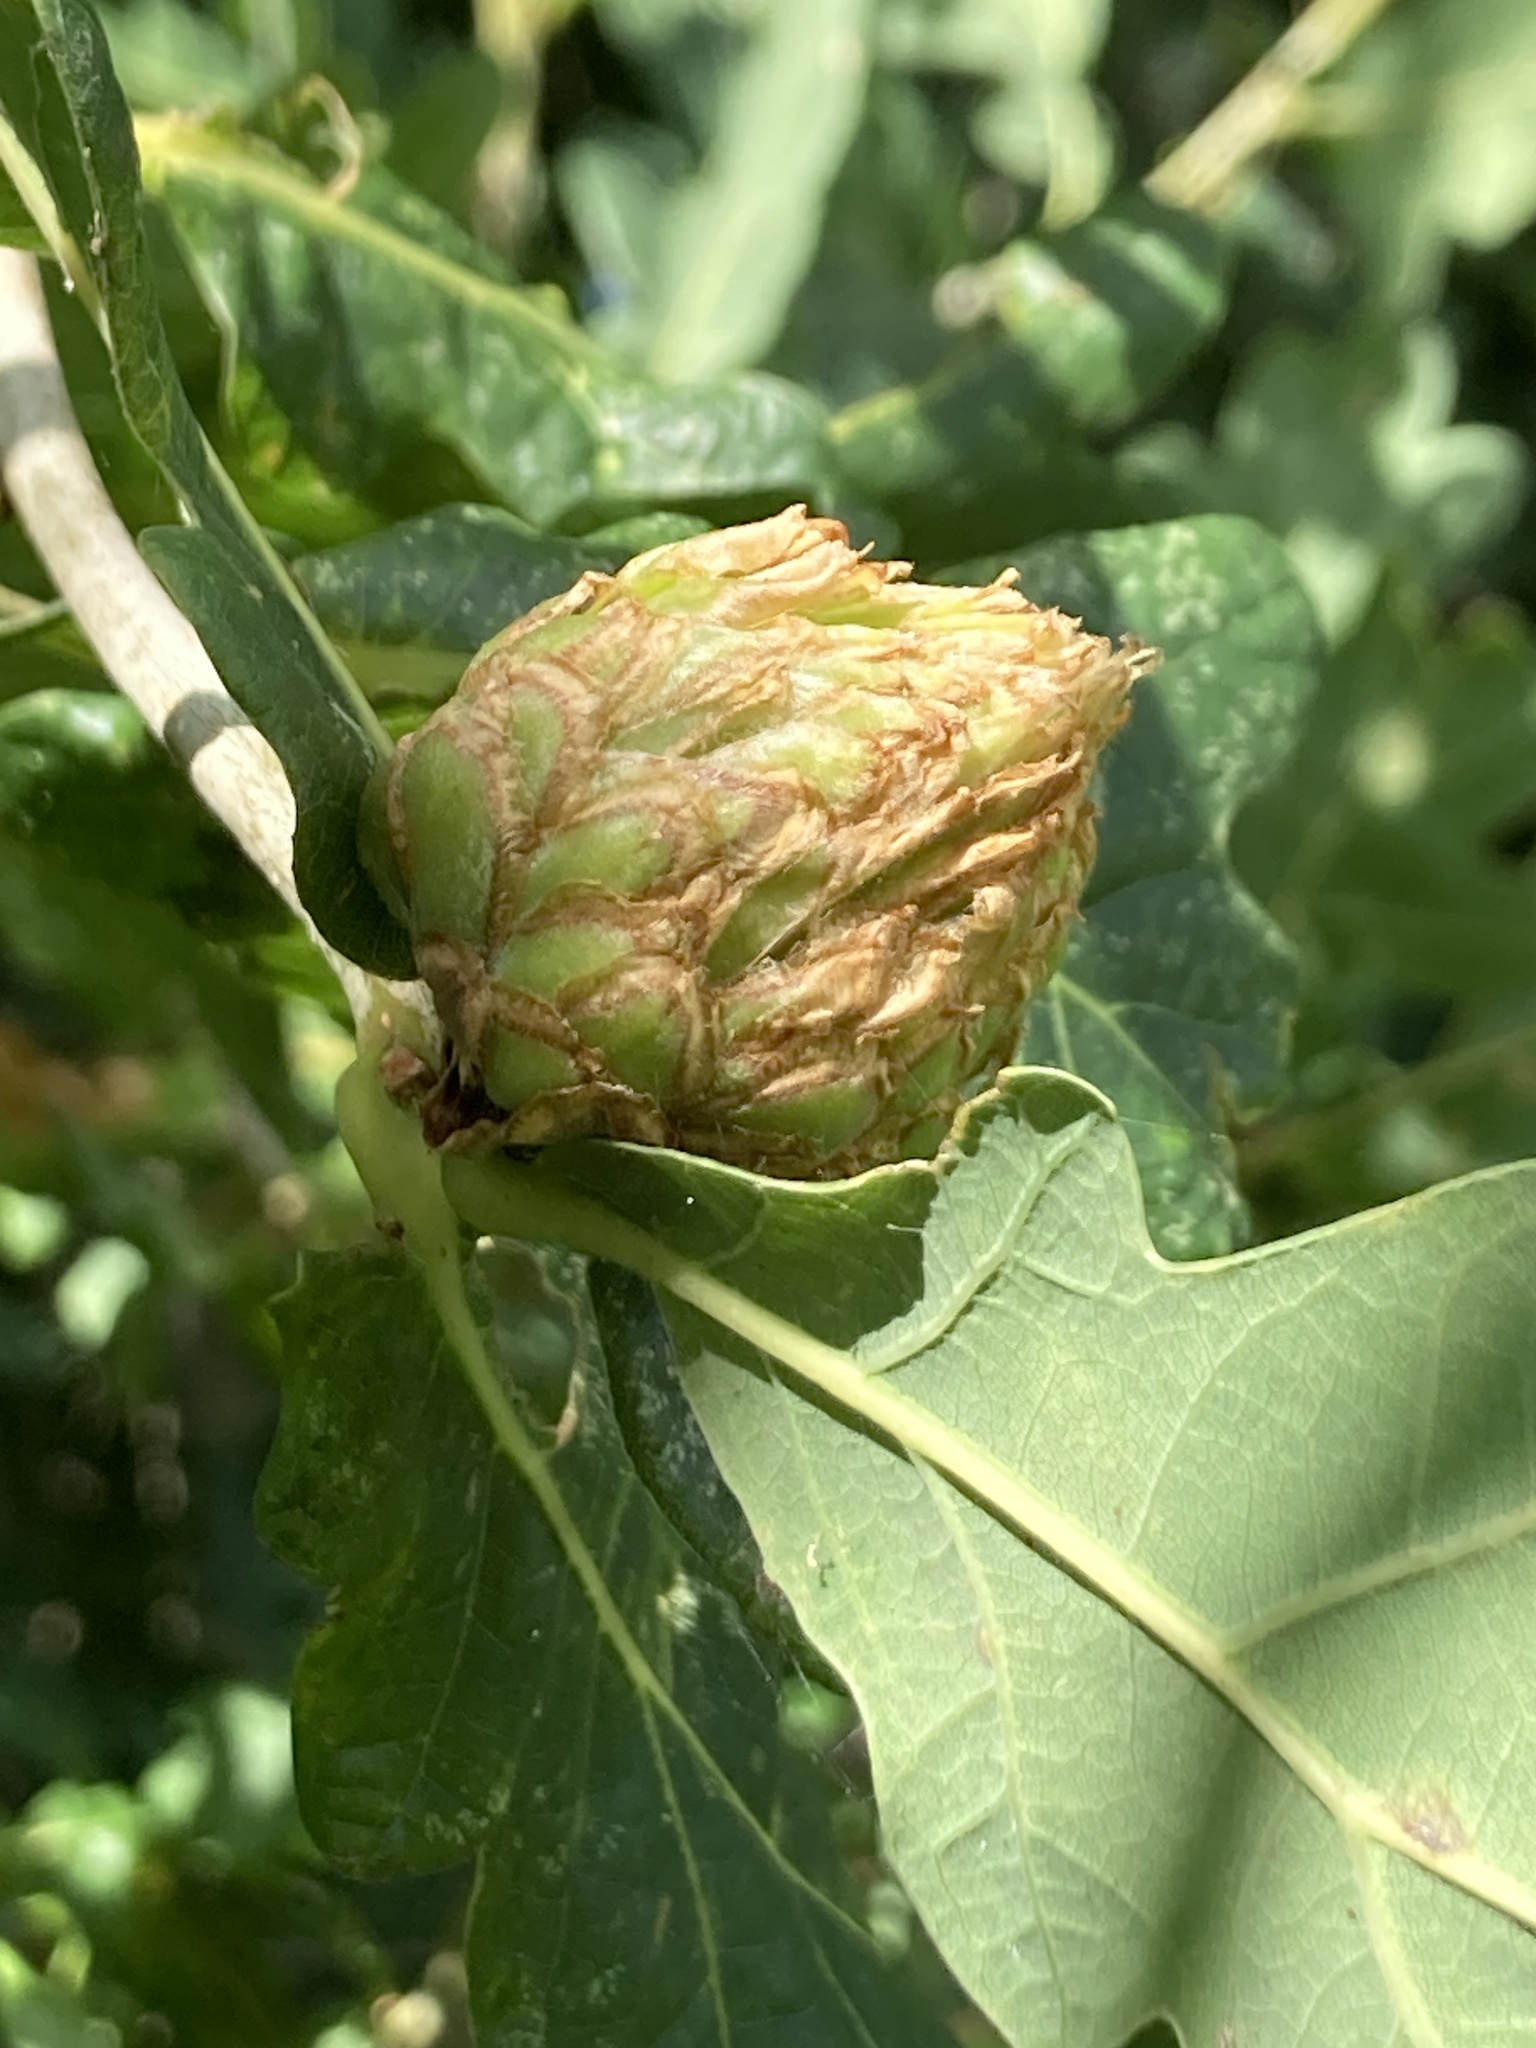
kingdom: Animalia
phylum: Arthropoda
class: Insecta
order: Hymenoptera
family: Cynipidae
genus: Andricus
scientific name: Andricus foecundatrix
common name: Artichoke gall
